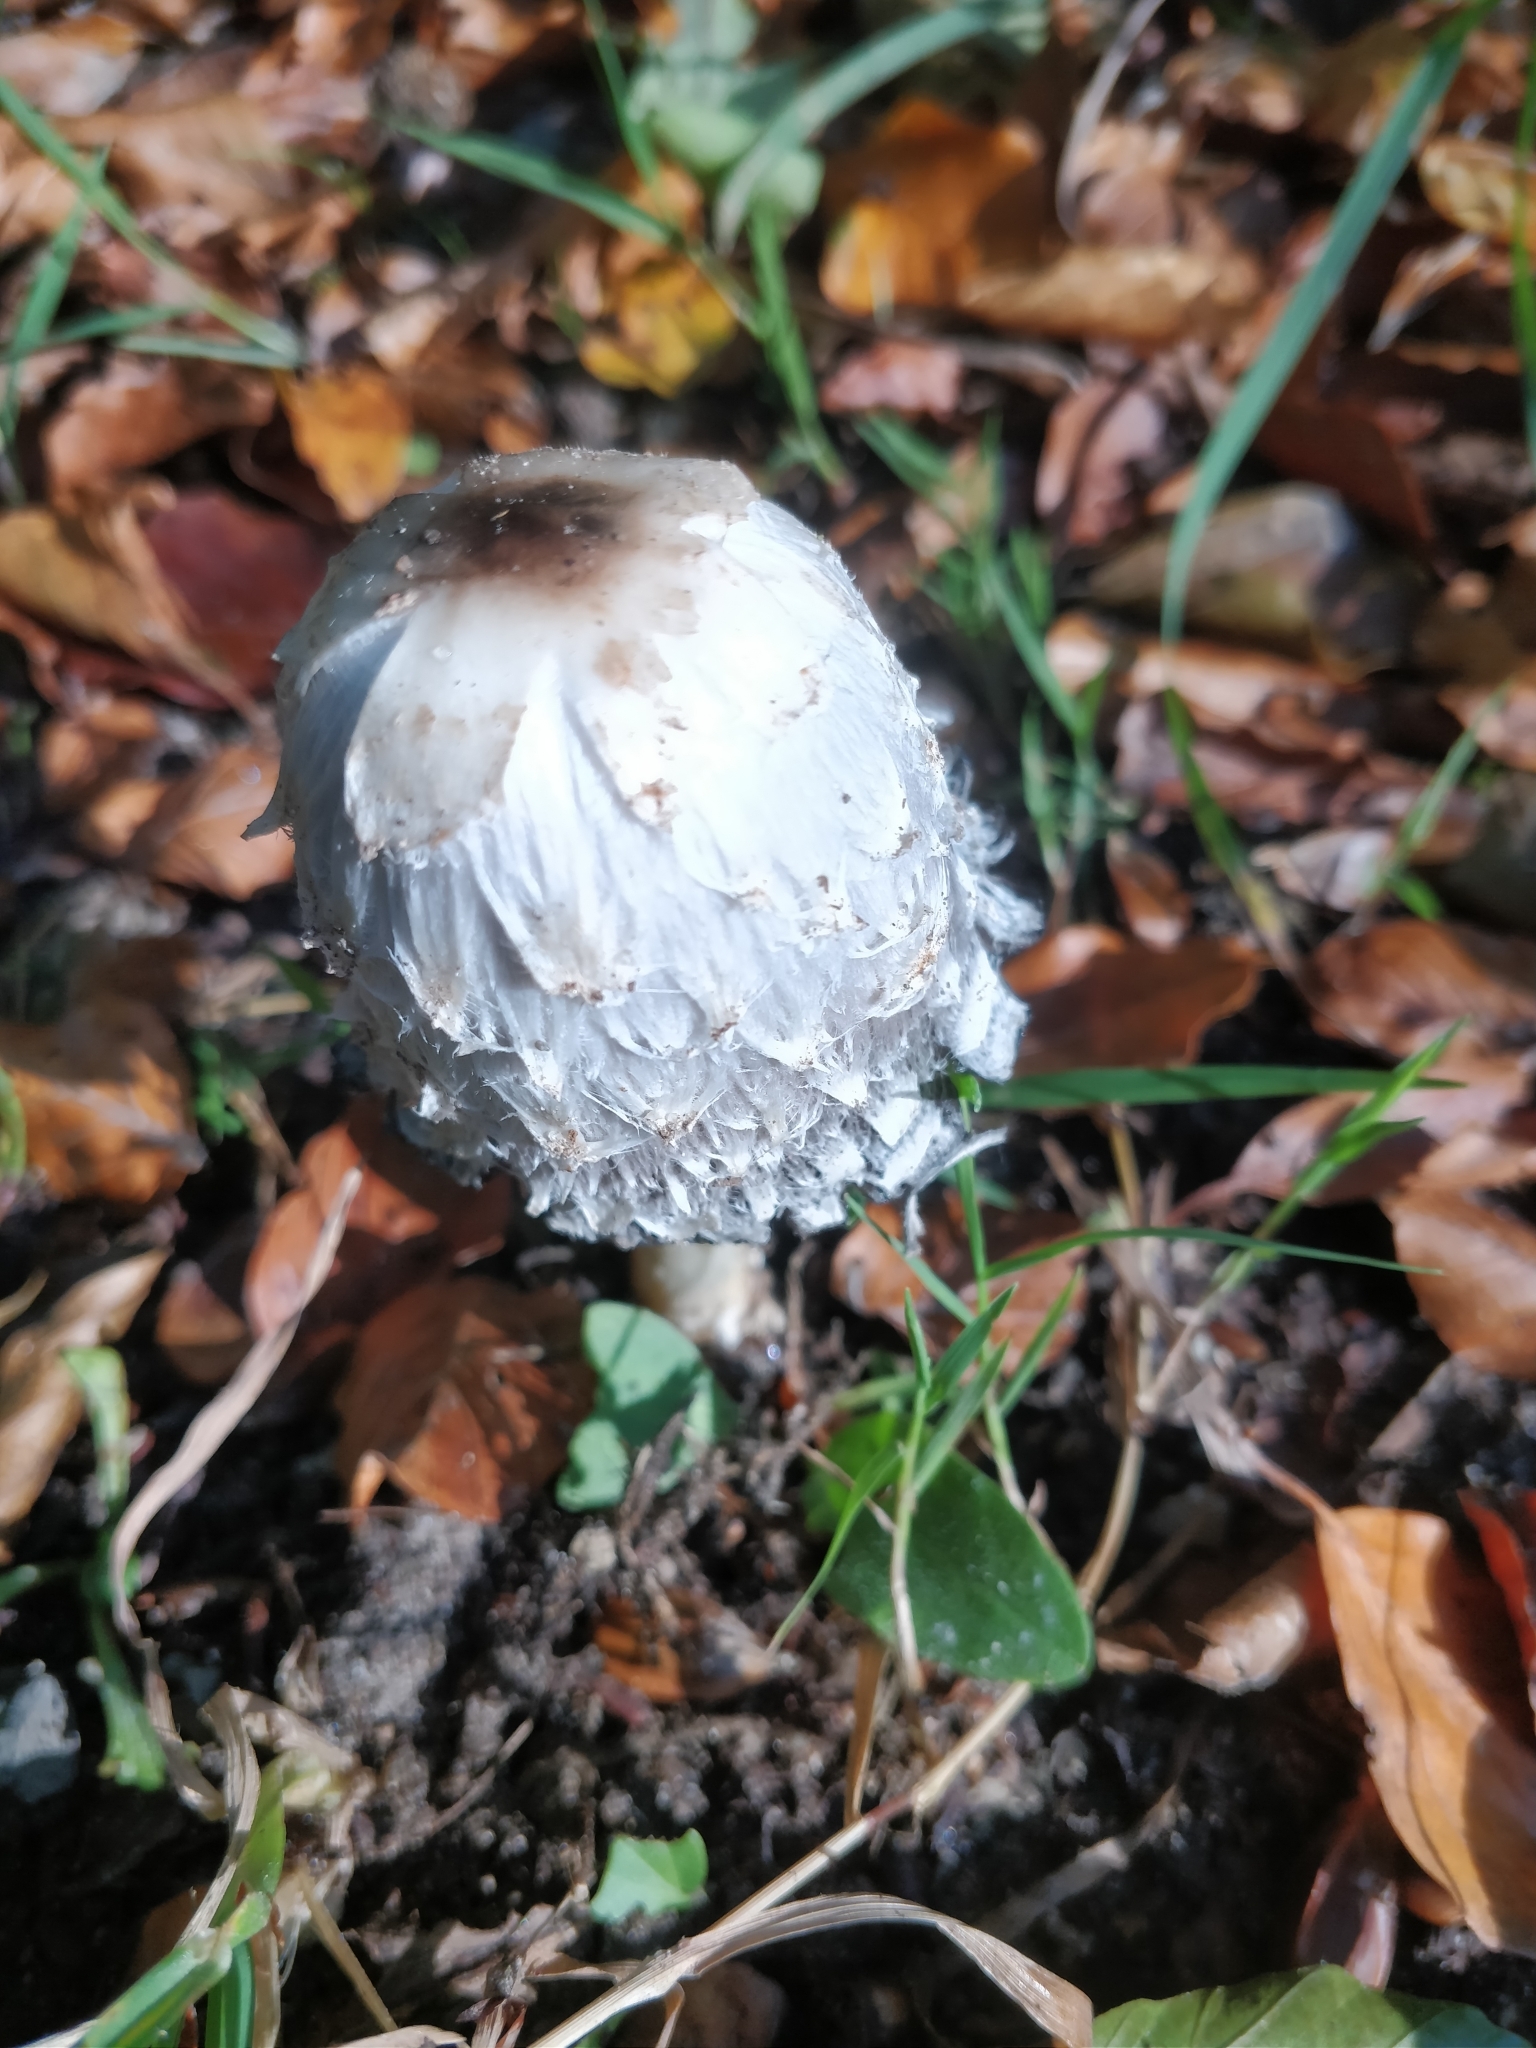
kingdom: Fungi
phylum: Basidiomycota
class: Agaricomycetes
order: Agaricales
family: Agaricaceae
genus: Coprinus
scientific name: Coprinus comatus
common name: Lawyer's wig
